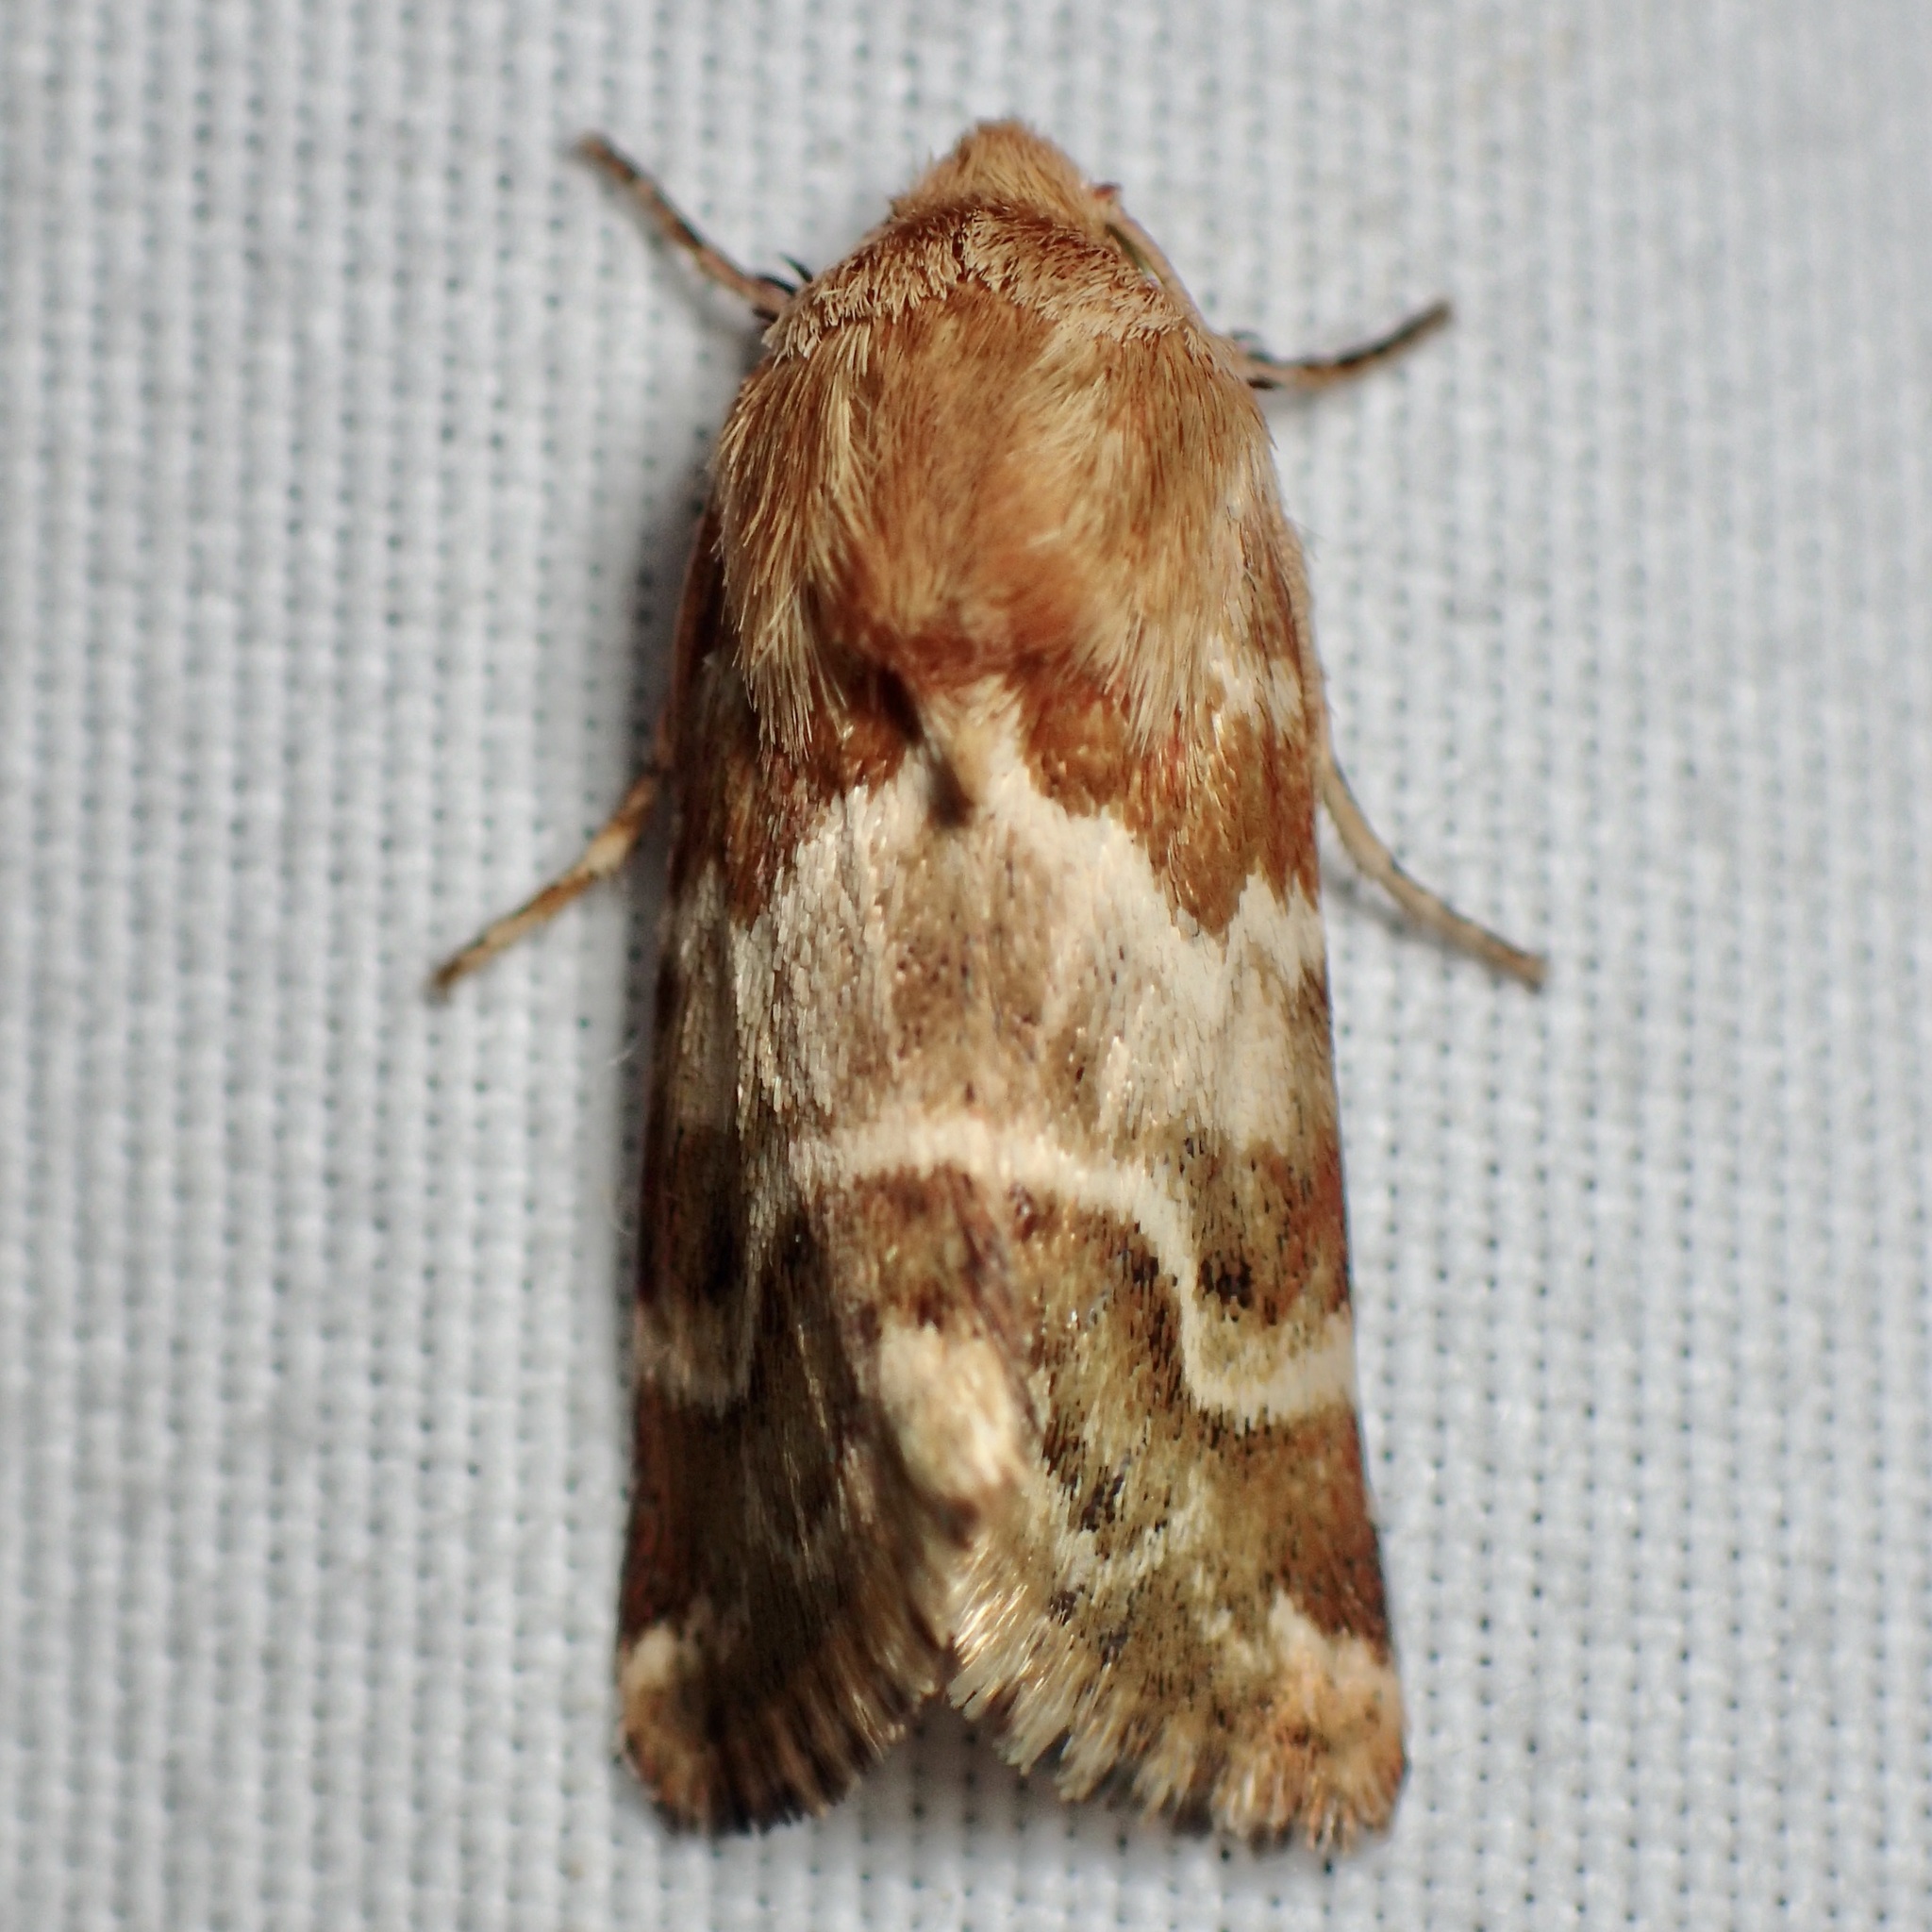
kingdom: Animalia
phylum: Arthropoda
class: Insecta
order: Lepidoptera
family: Noctuidae
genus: Schinia
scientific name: Schinia errans
